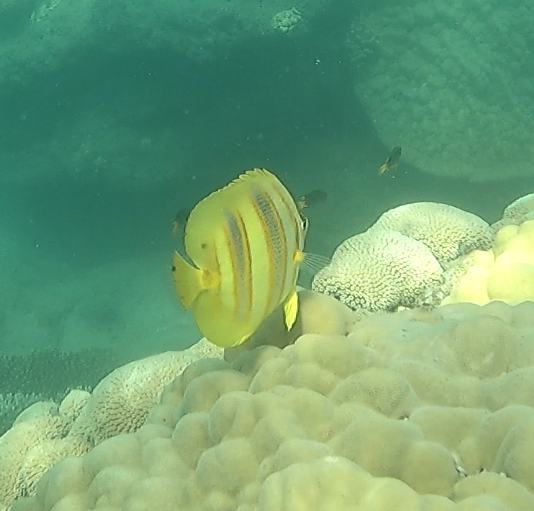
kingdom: Animalia
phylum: Chordata
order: Perciformes
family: Chaetodontidae
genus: Chaetodon
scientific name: Chaetodon rainfordi
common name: Rainford's butterflyfish
